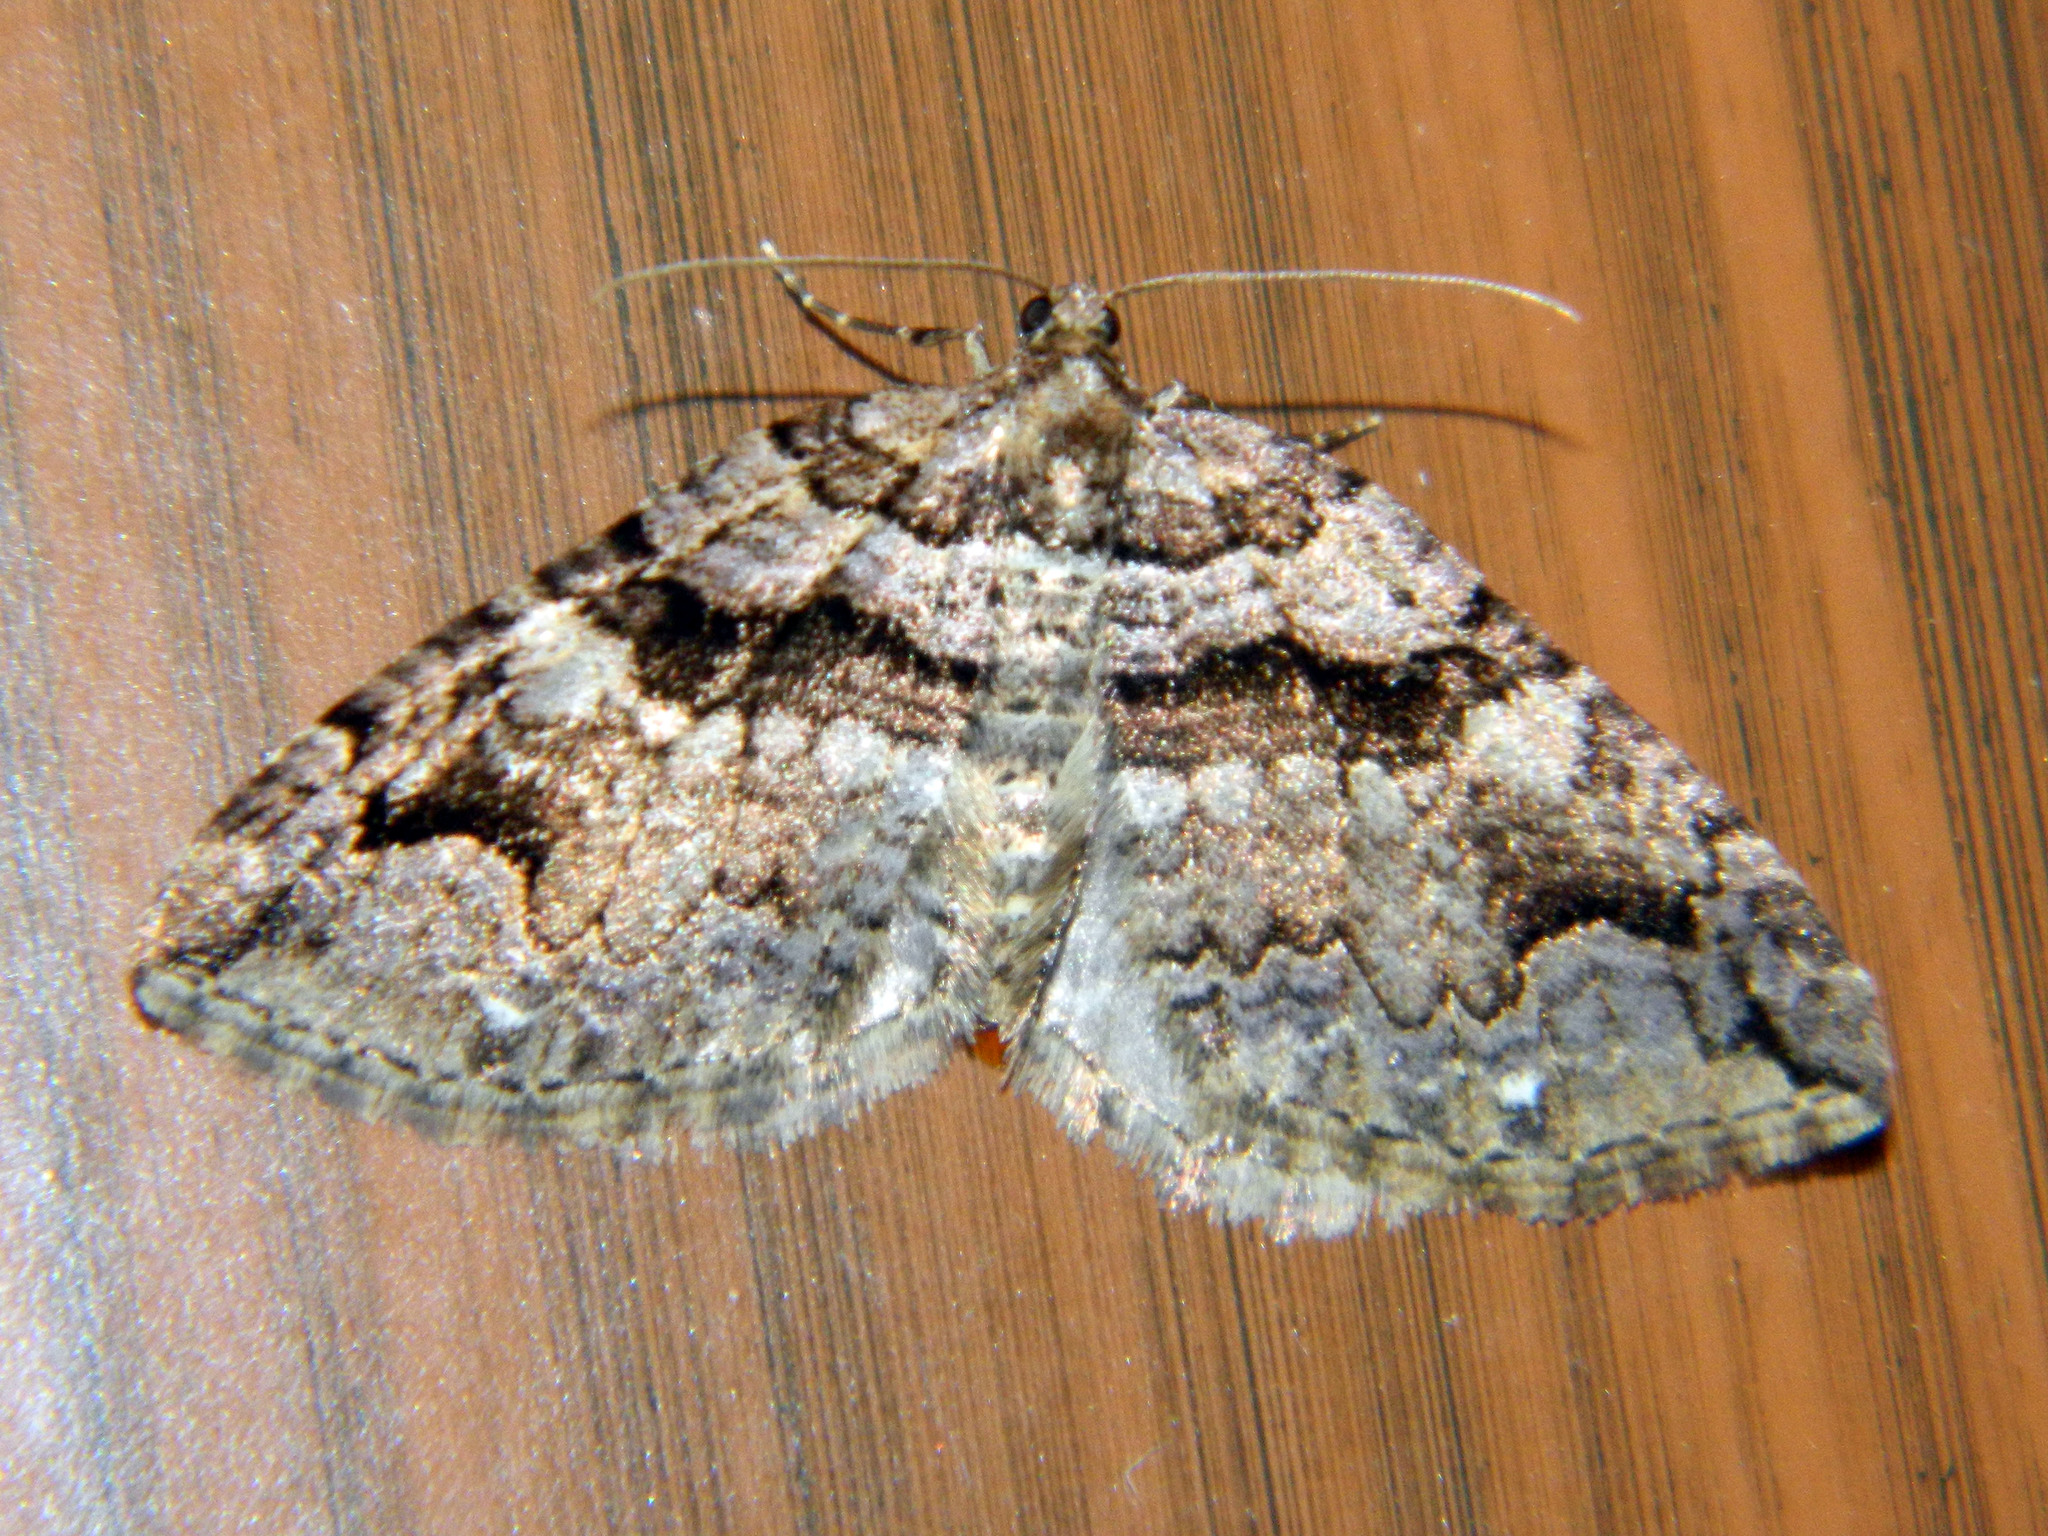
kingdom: Animalia
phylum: Arthropoda
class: Insecta
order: Lepidoptera
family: Geometridae
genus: Anticlea
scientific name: Anticlea vasiliata
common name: Variable carpet
